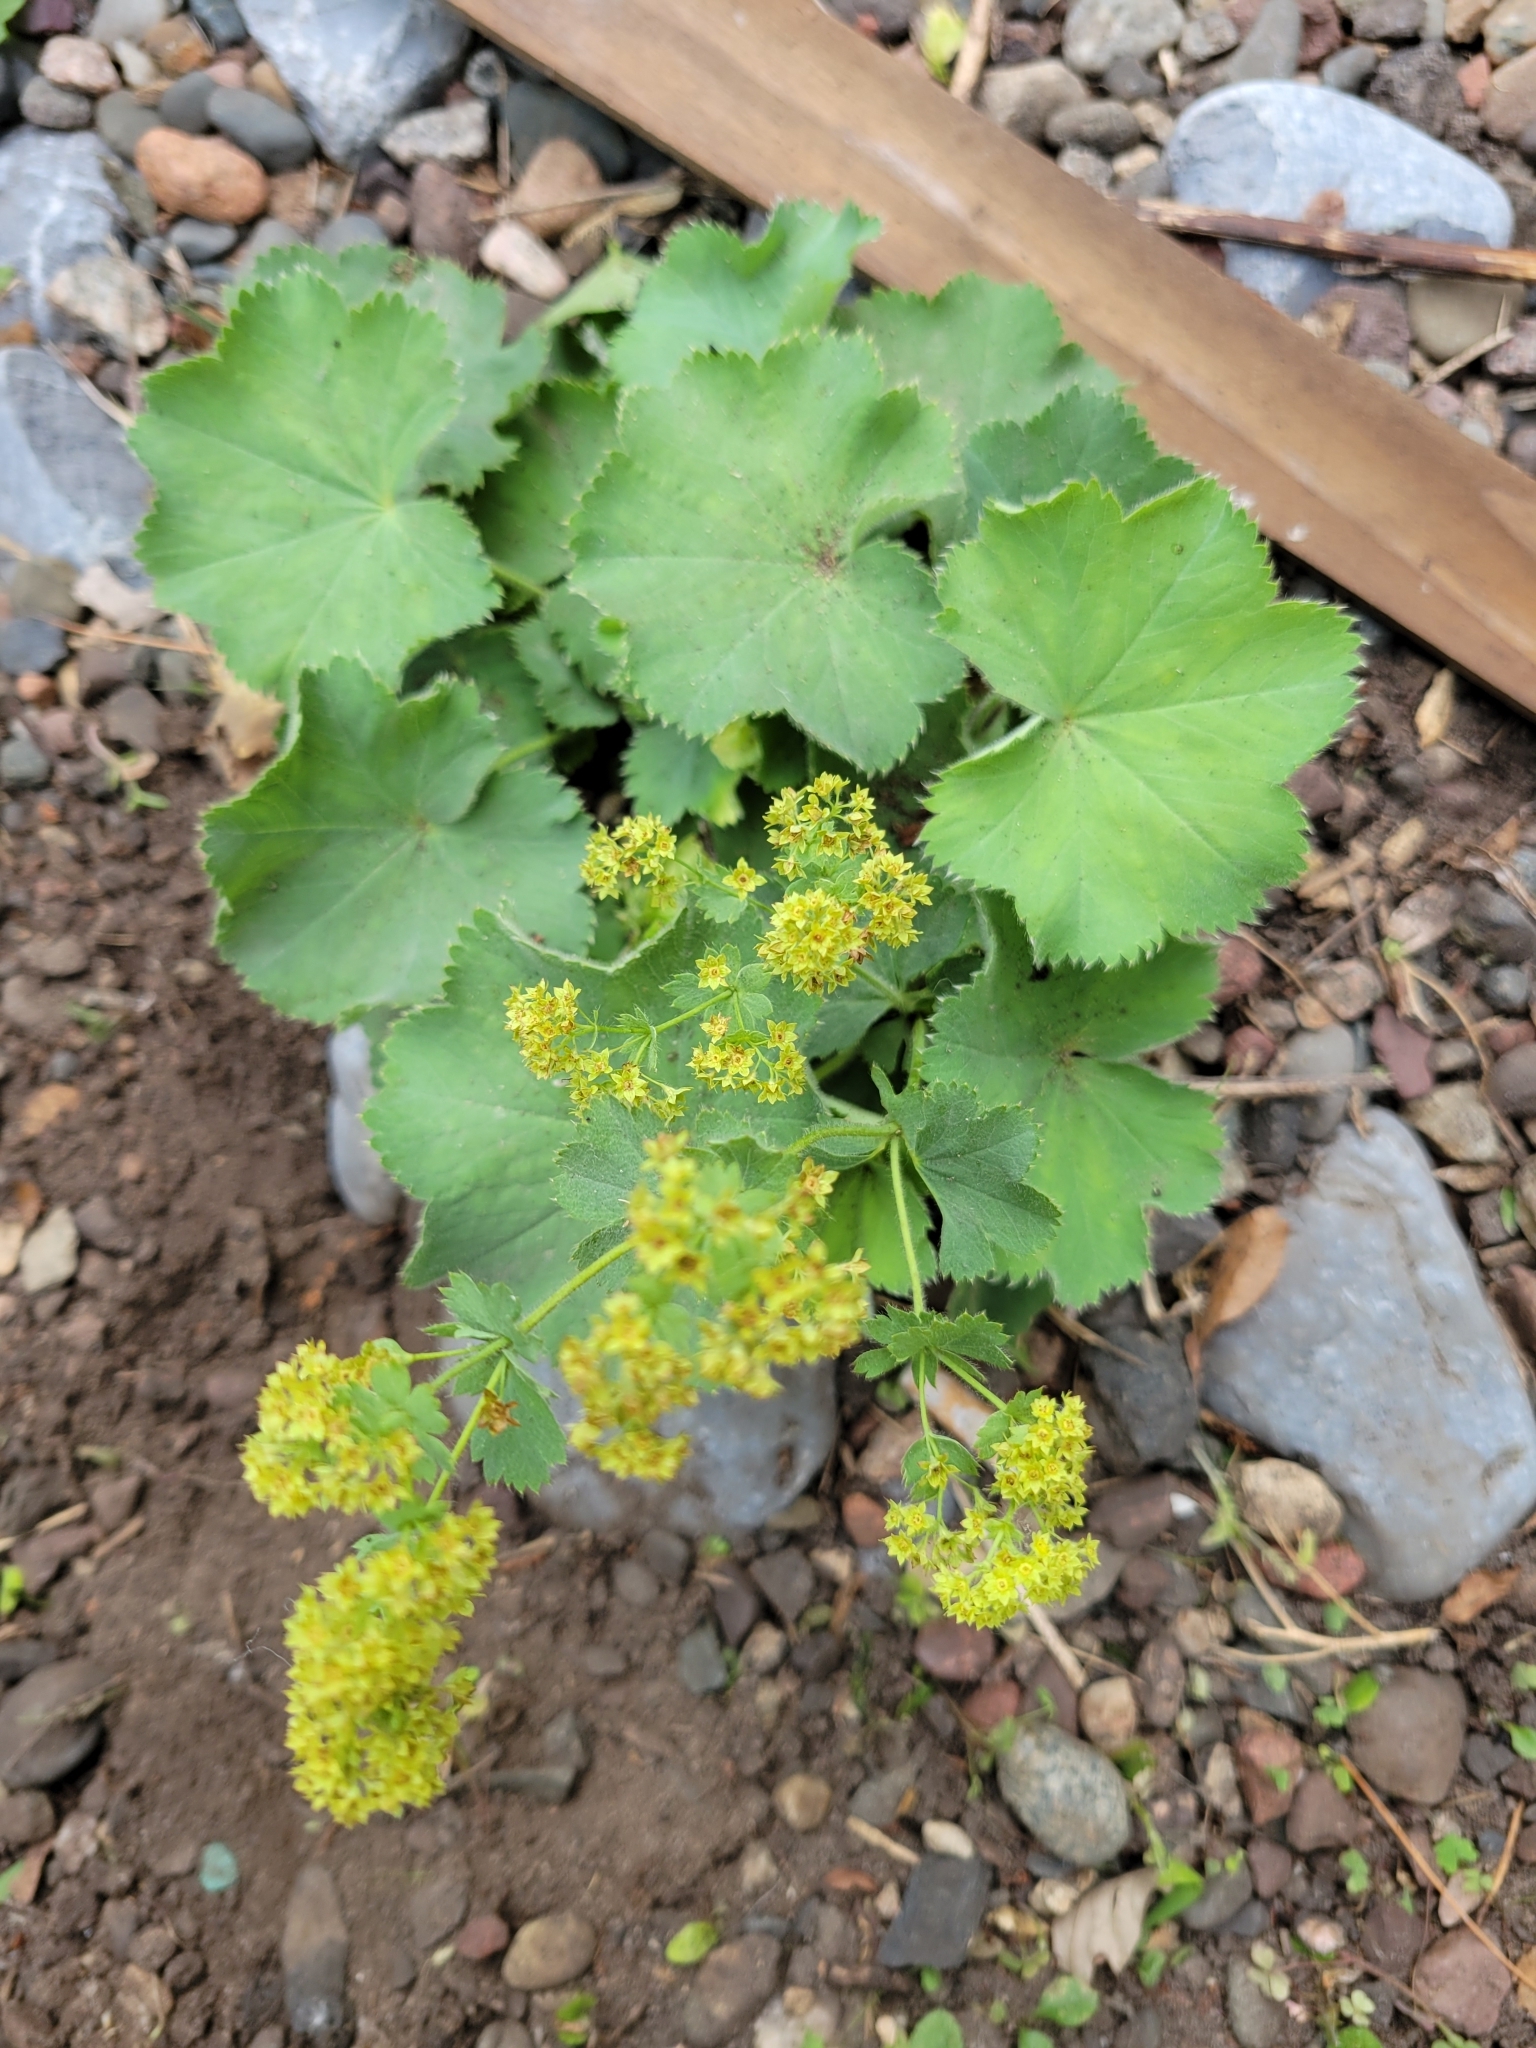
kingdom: Plantae
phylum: Tracheophyta
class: Magnoliopsida
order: Rosales
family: Rosaceae
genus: Alchemilla
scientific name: Alchemilla mollis
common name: Lady's-mantle
